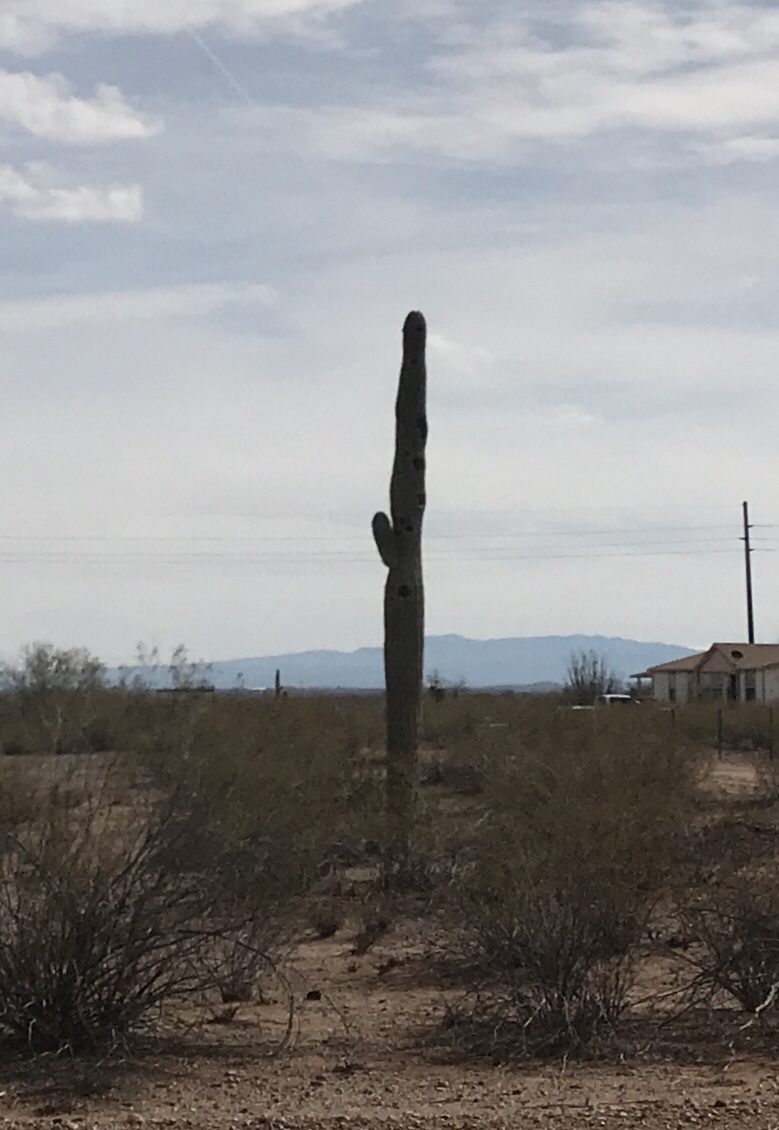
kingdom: Plantae
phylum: Tracheophyta
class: Magnoliopsida
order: Caryophyllales
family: Cactaceae
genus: Carnegiea
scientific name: Carnegiea gigantea
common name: Saguaro
